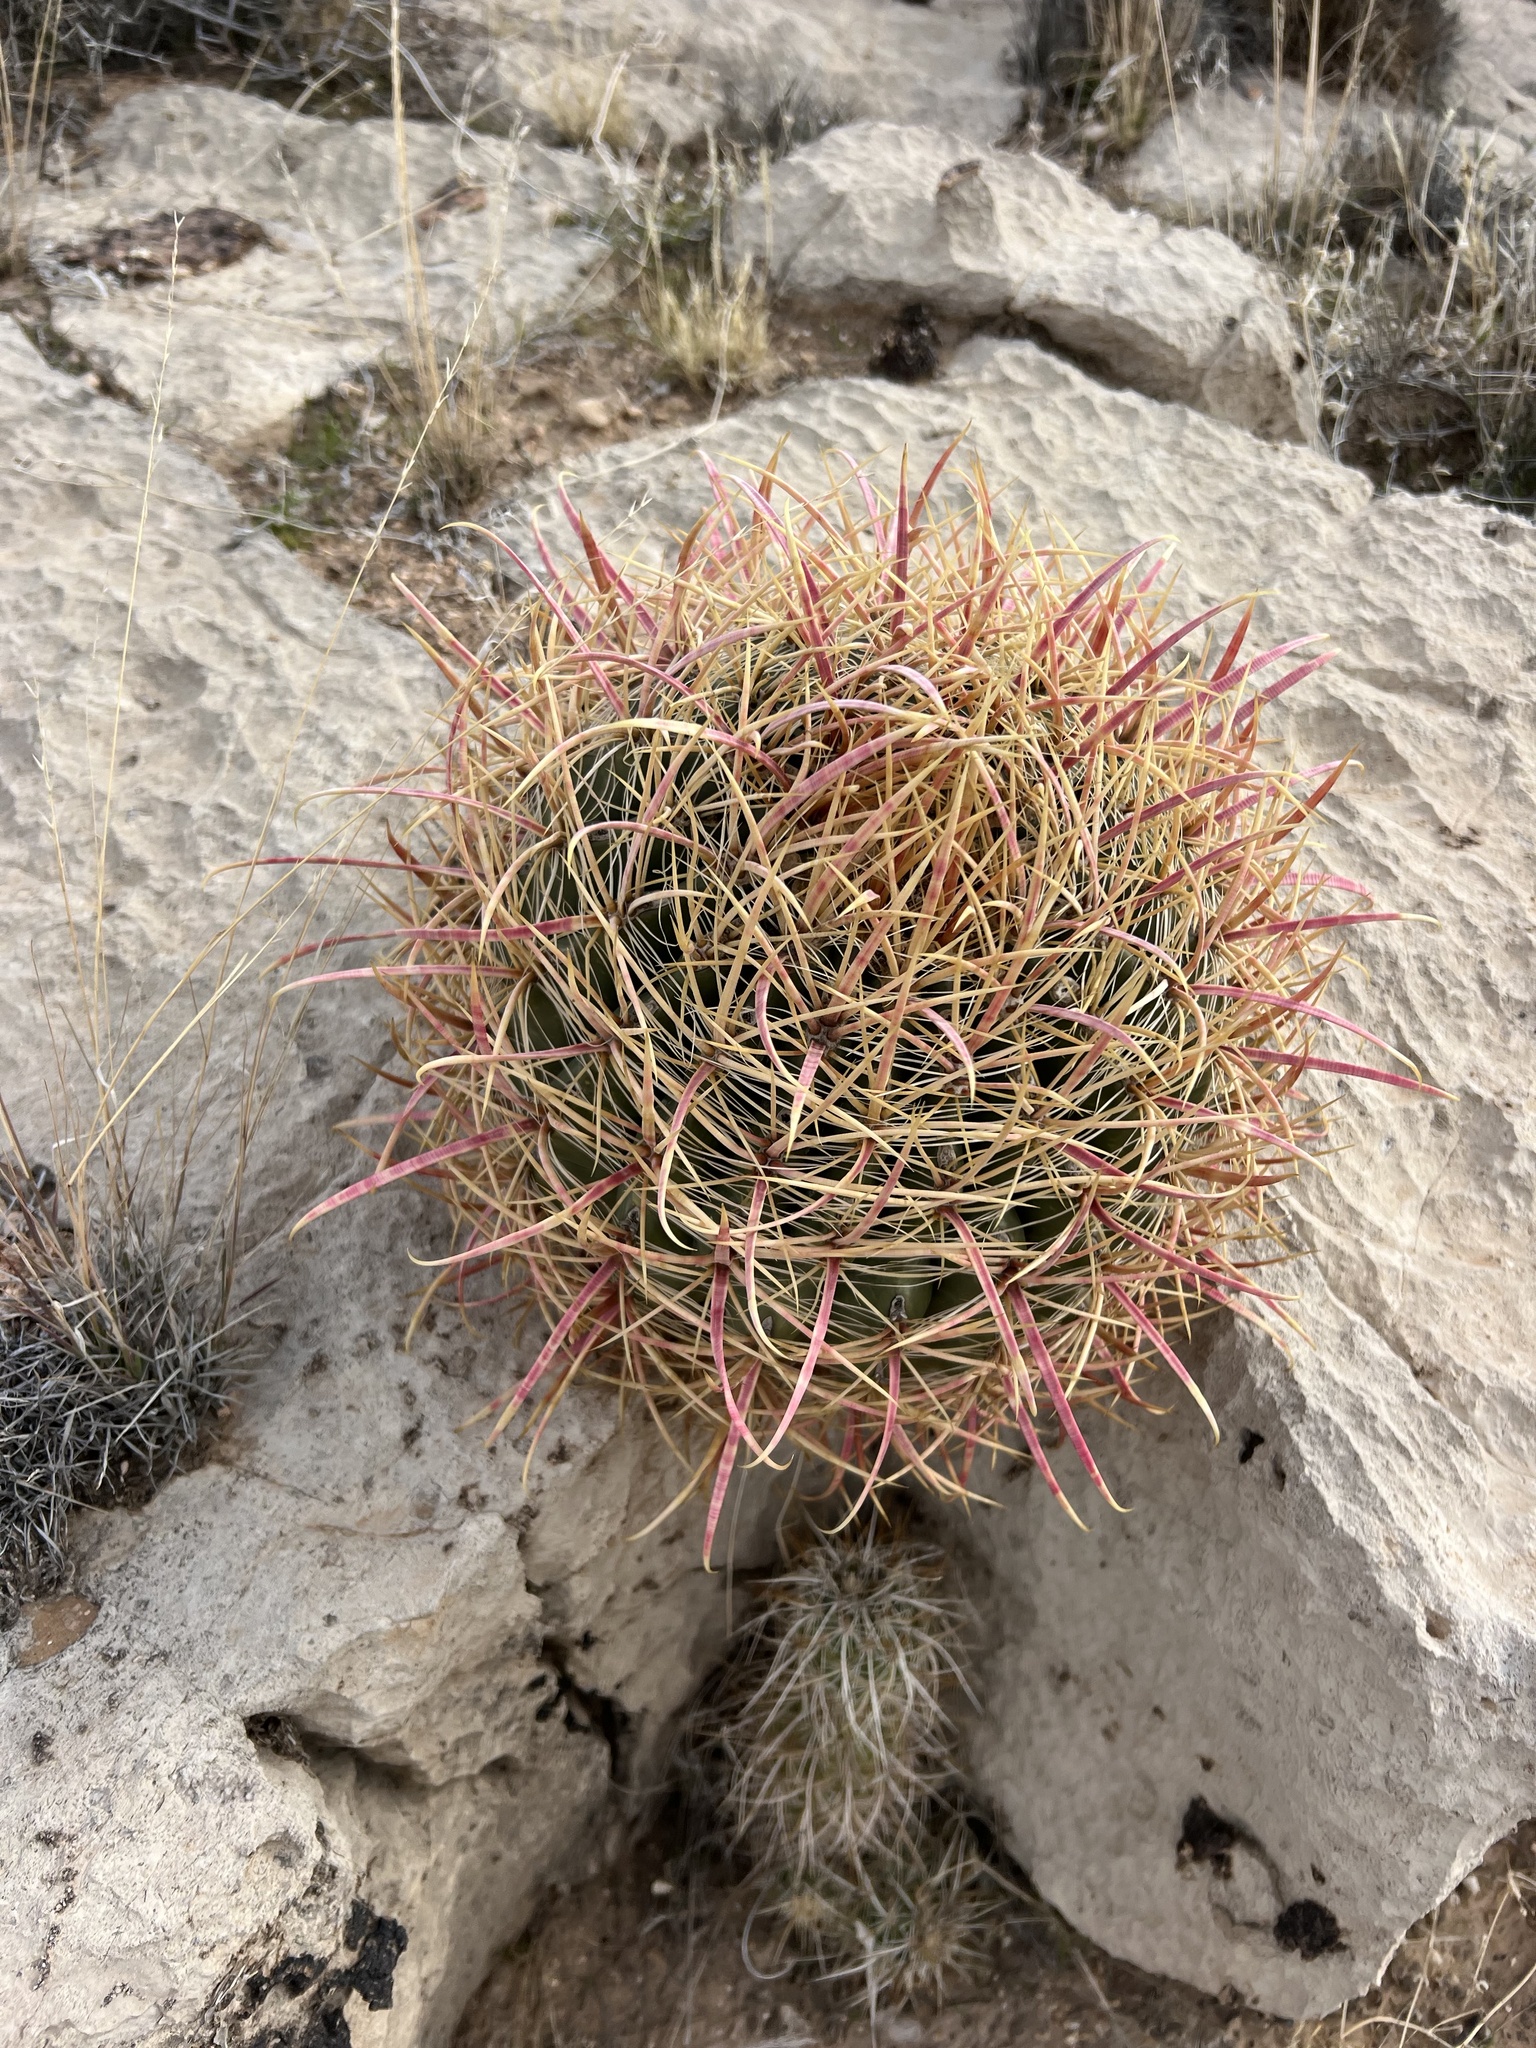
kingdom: Plantae
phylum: Tracheophyta
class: Magnoliopsida
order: Caryophyllales
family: Cactaceae
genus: Ferocactus
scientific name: Ferocactus cylindraceus
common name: California barrel cactus
